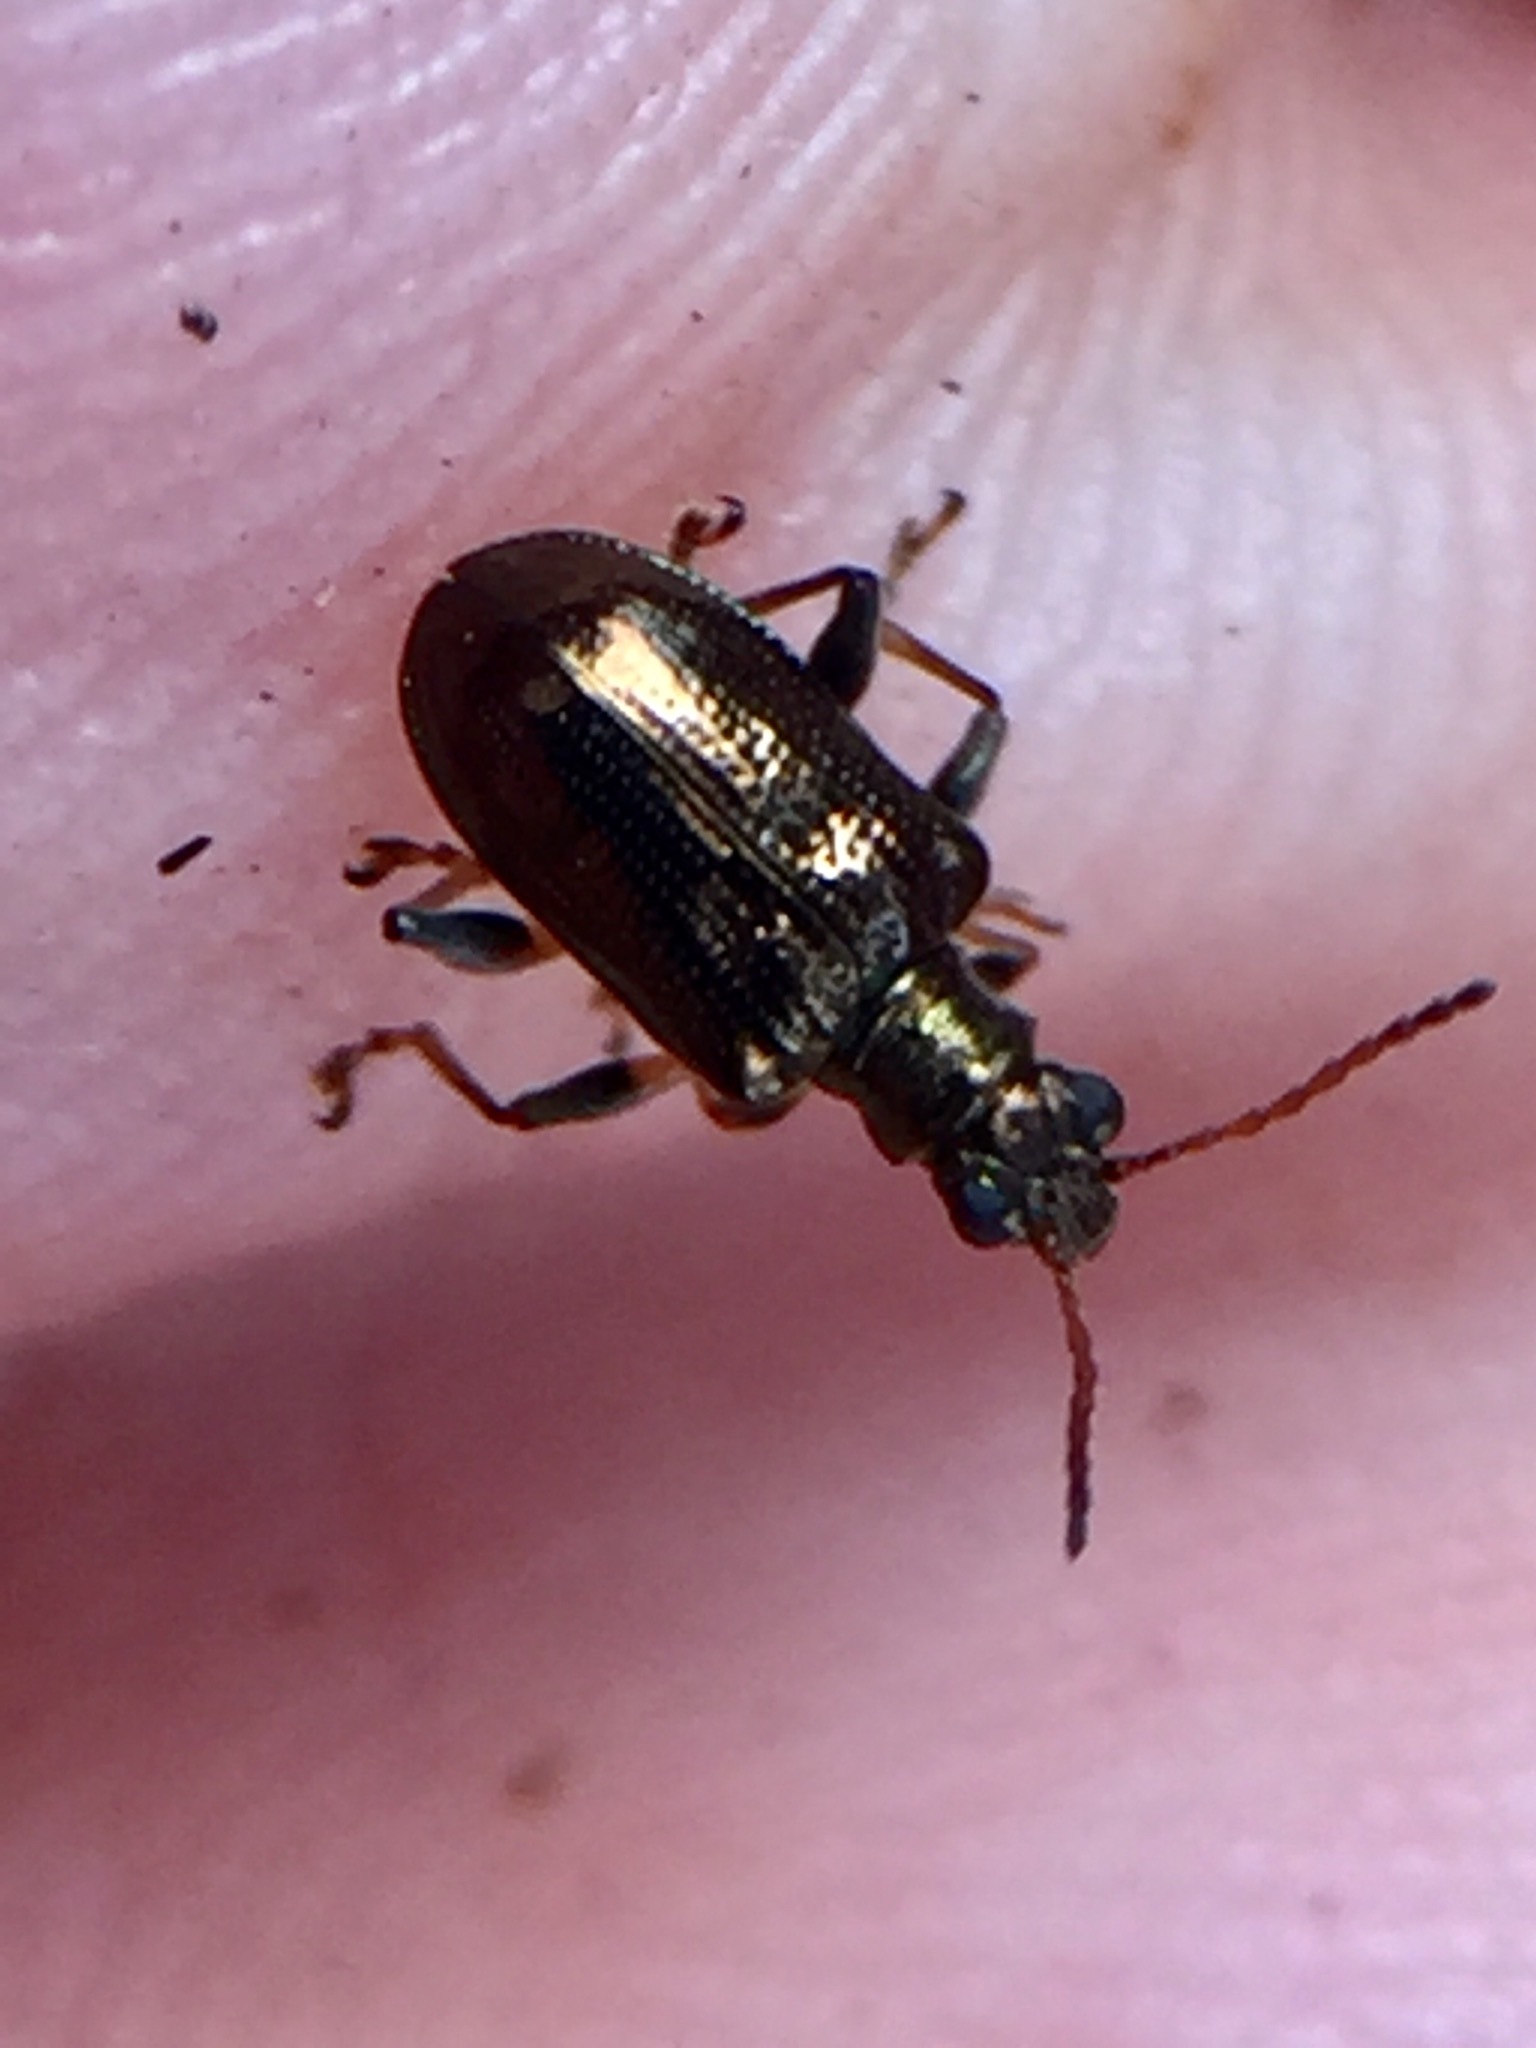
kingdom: Animalia
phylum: Arthropoda
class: Insecta
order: Coleoptera
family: Chrysomelidae
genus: Neolema
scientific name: Neolema ogloblini
